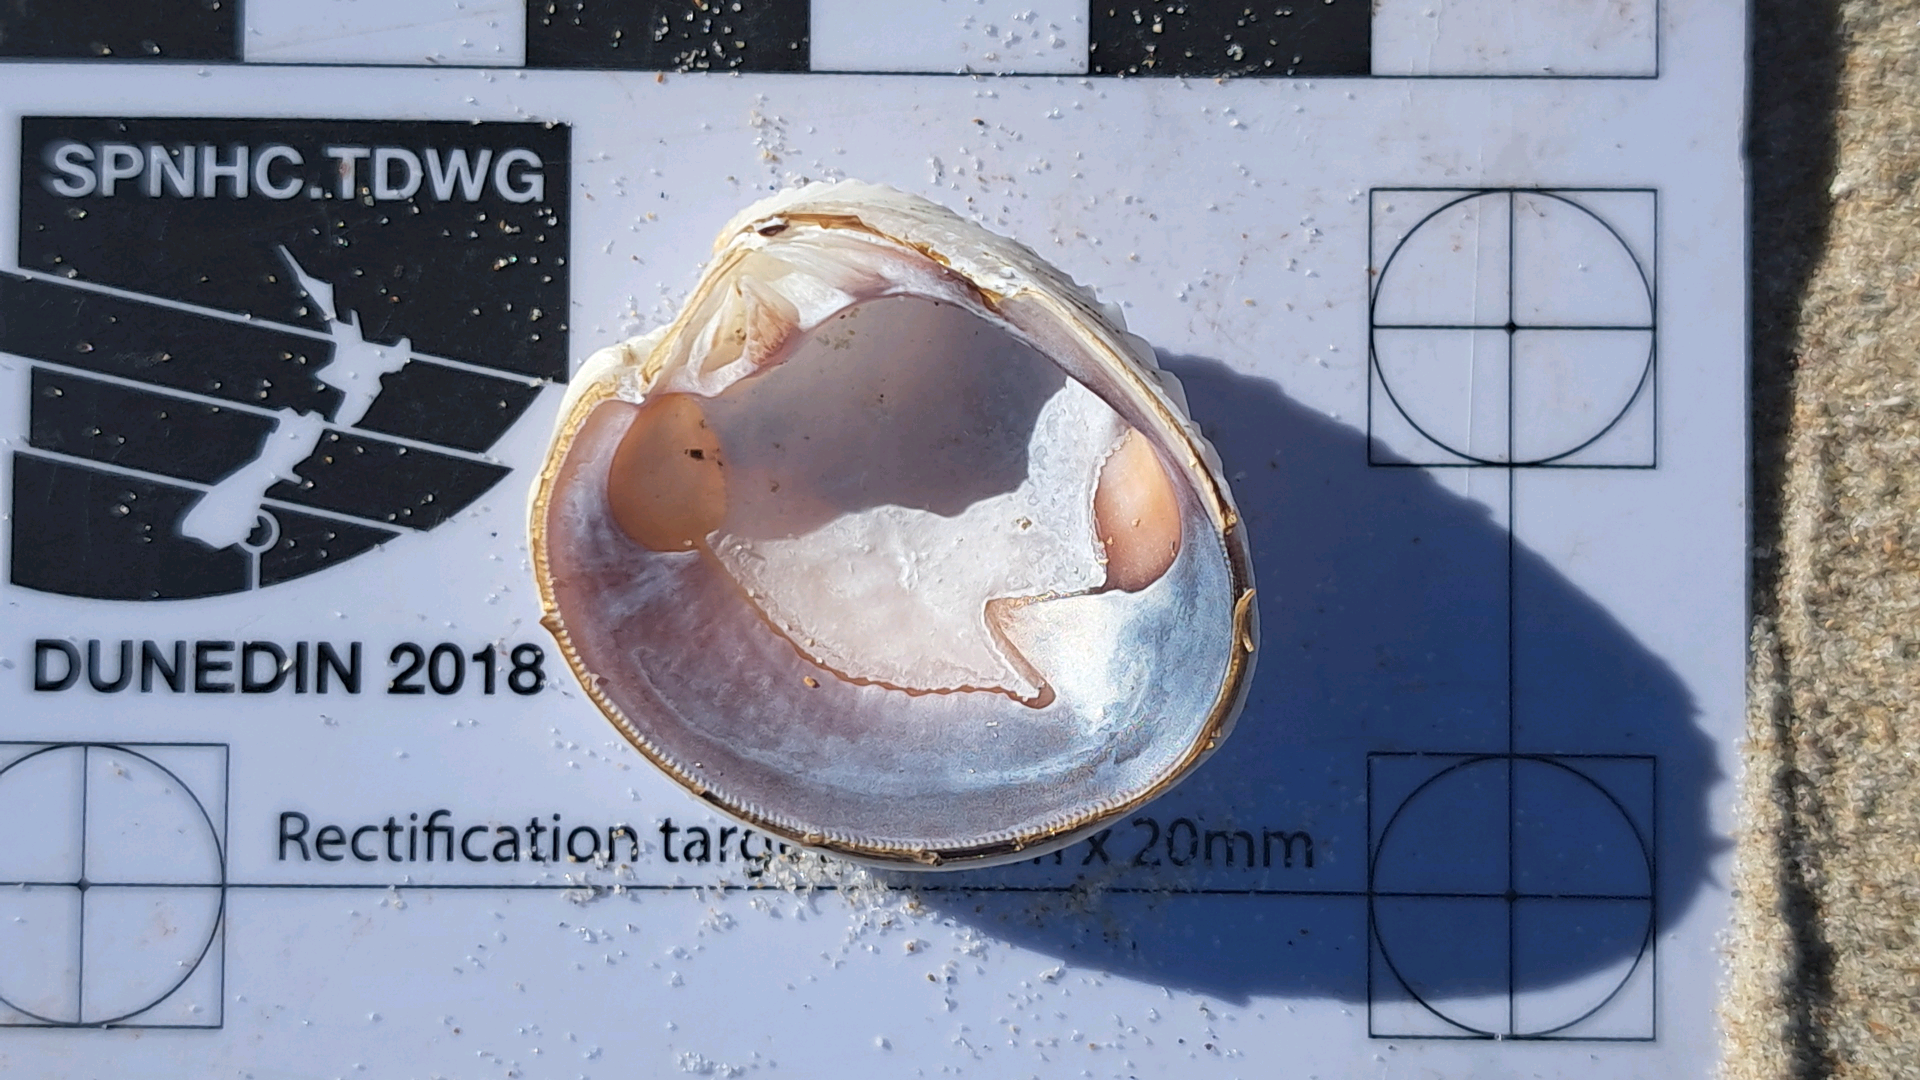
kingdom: Animalia
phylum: Mollusca
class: Bivalvia
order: Venerida
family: Veneridae
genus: Placamen
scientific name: Placamen placidum
